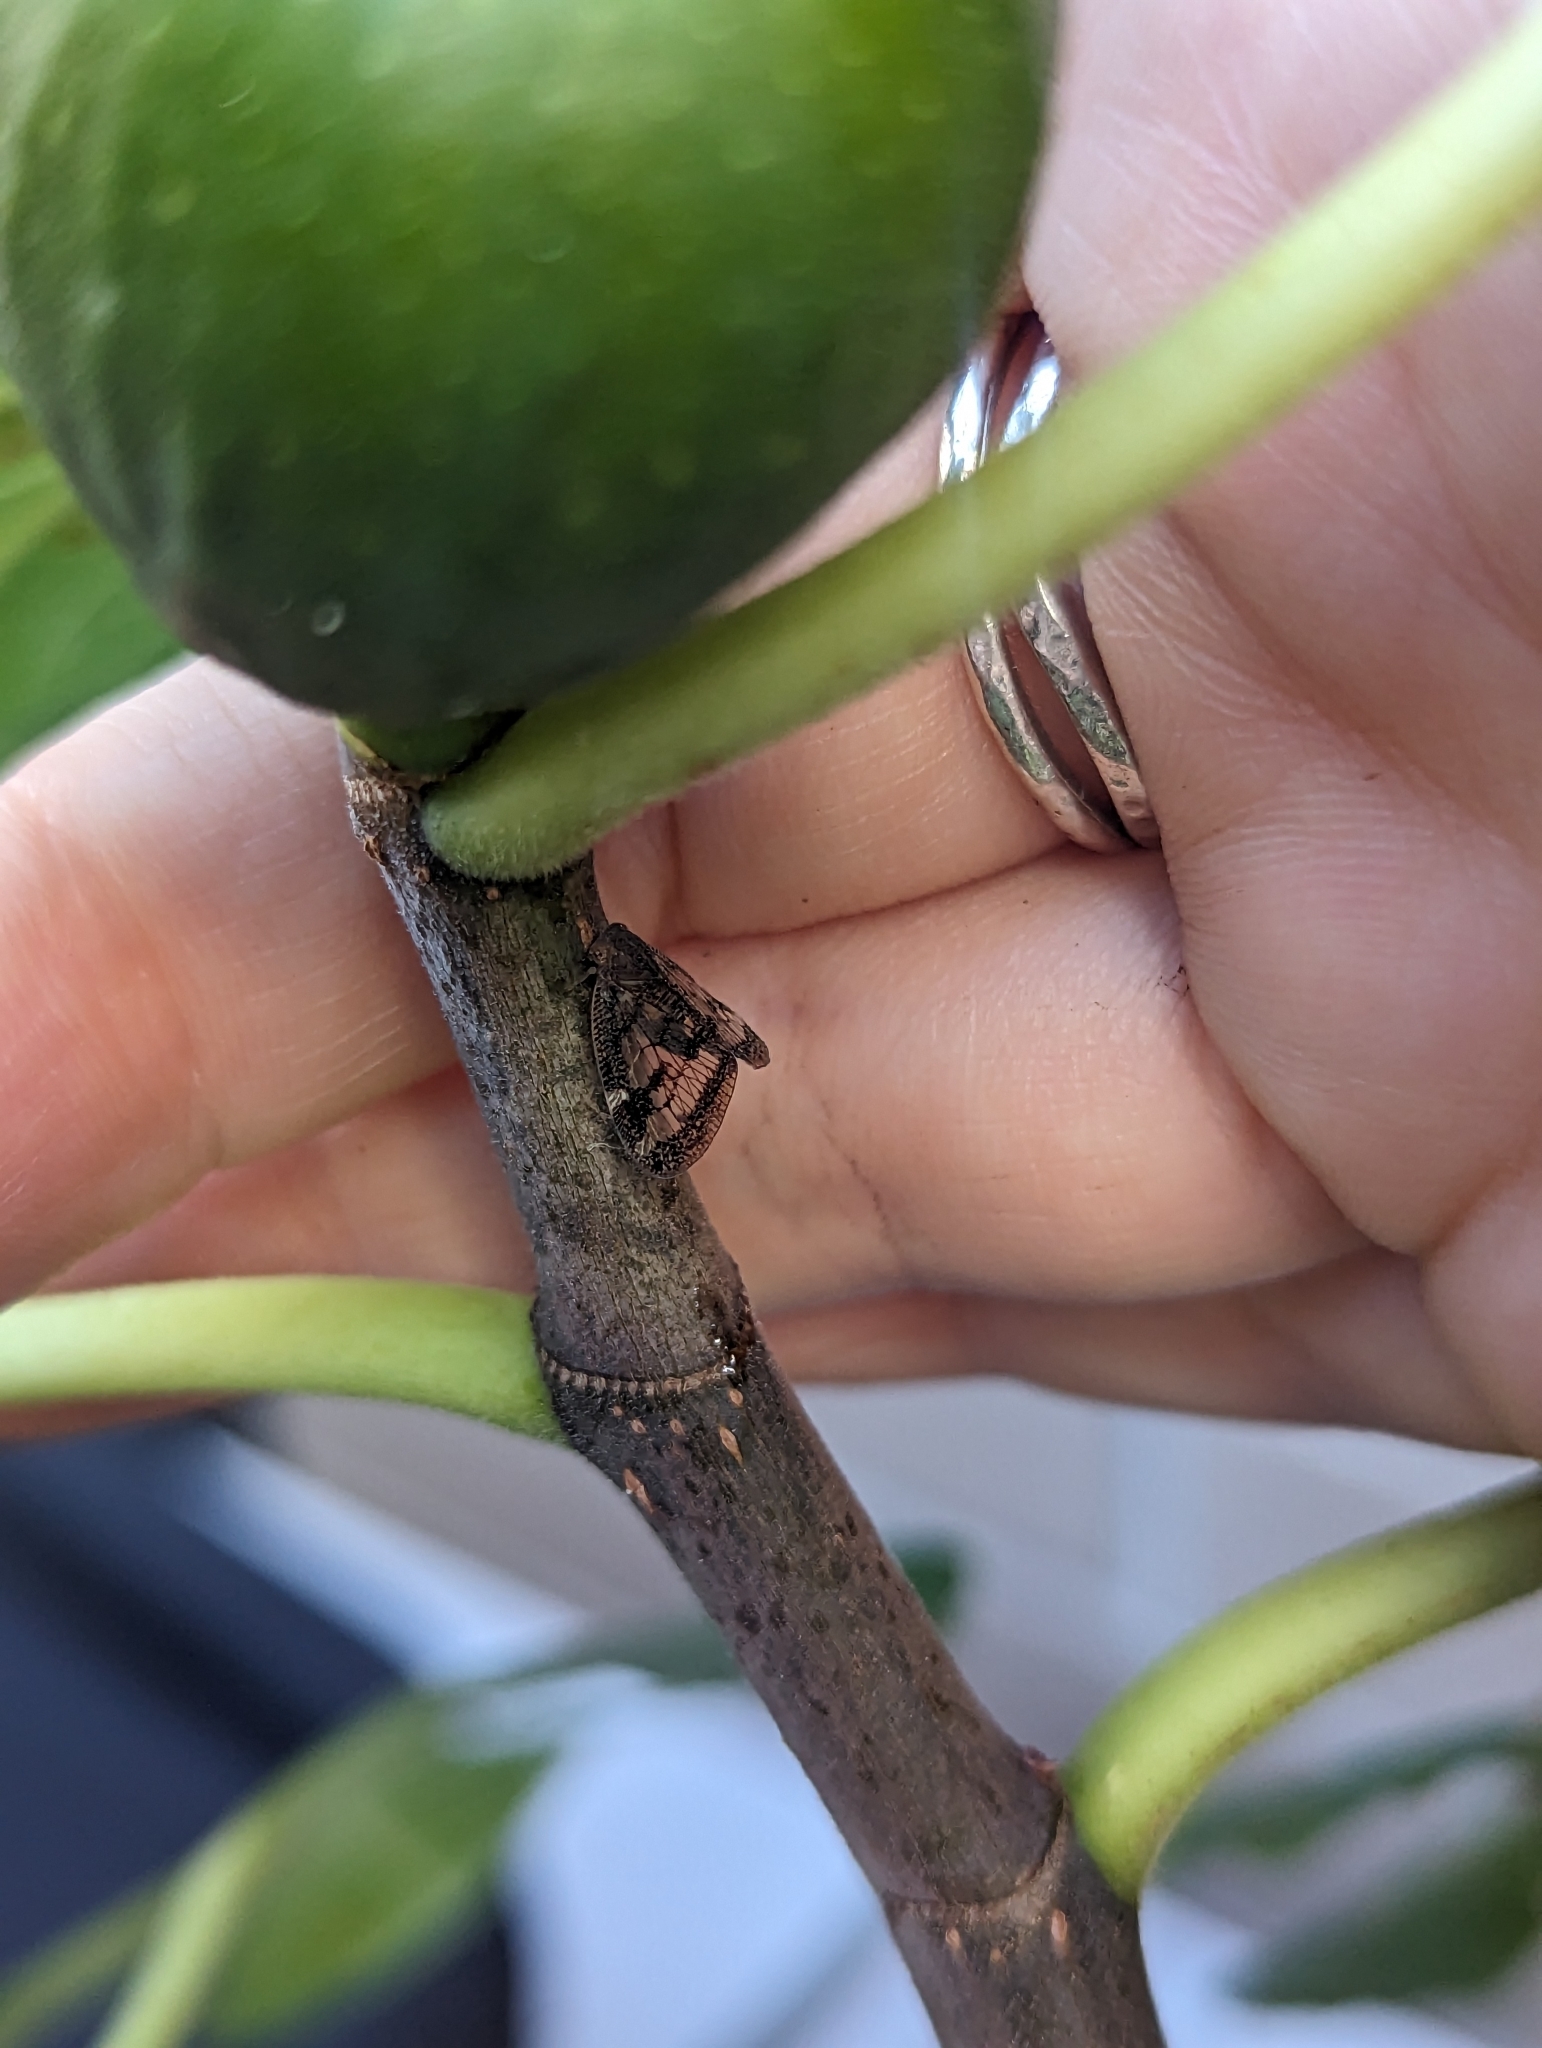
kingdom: Animalia
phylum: Arthropoda
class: Insecta
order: Hemiptera
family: Ricaniidae
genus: Scolypopa
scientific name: Scolypopa australis
